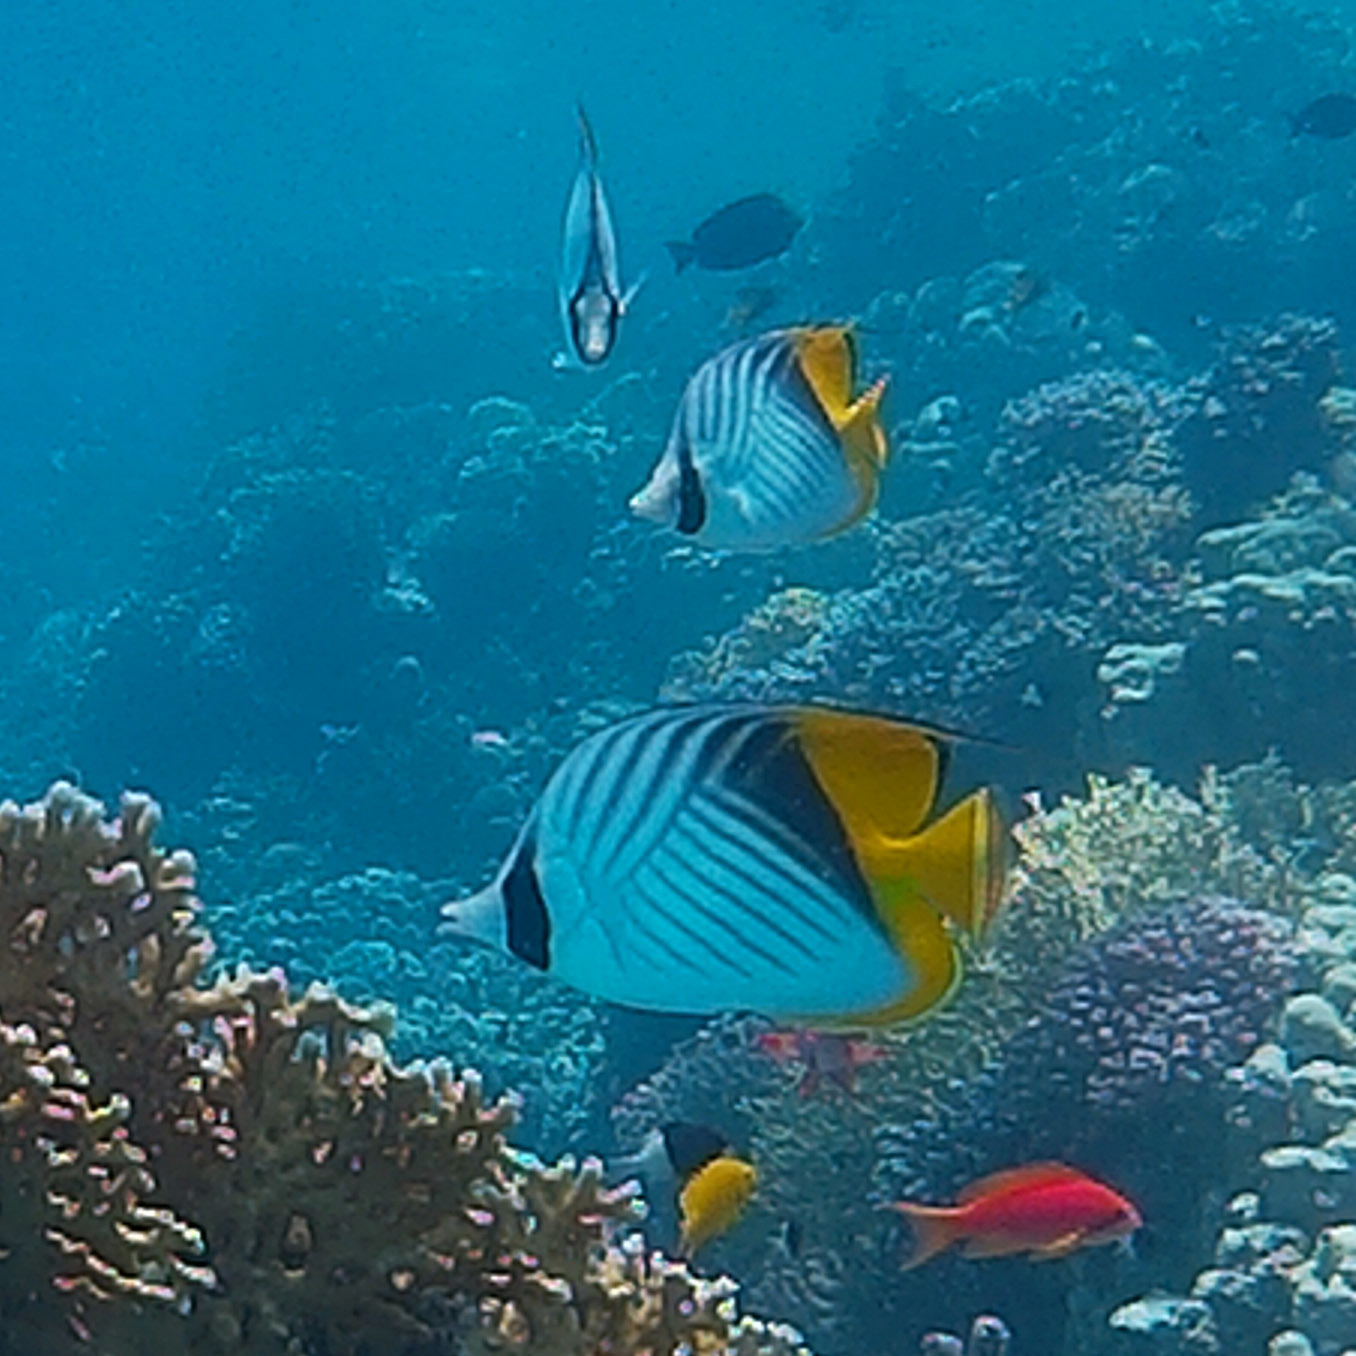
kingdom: Animalia
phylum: Chordata
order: Perciformes
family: Chaetodontidae
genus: Chaetodon
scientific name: Chaetodon auriga
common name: Threadfin butterflyfish
